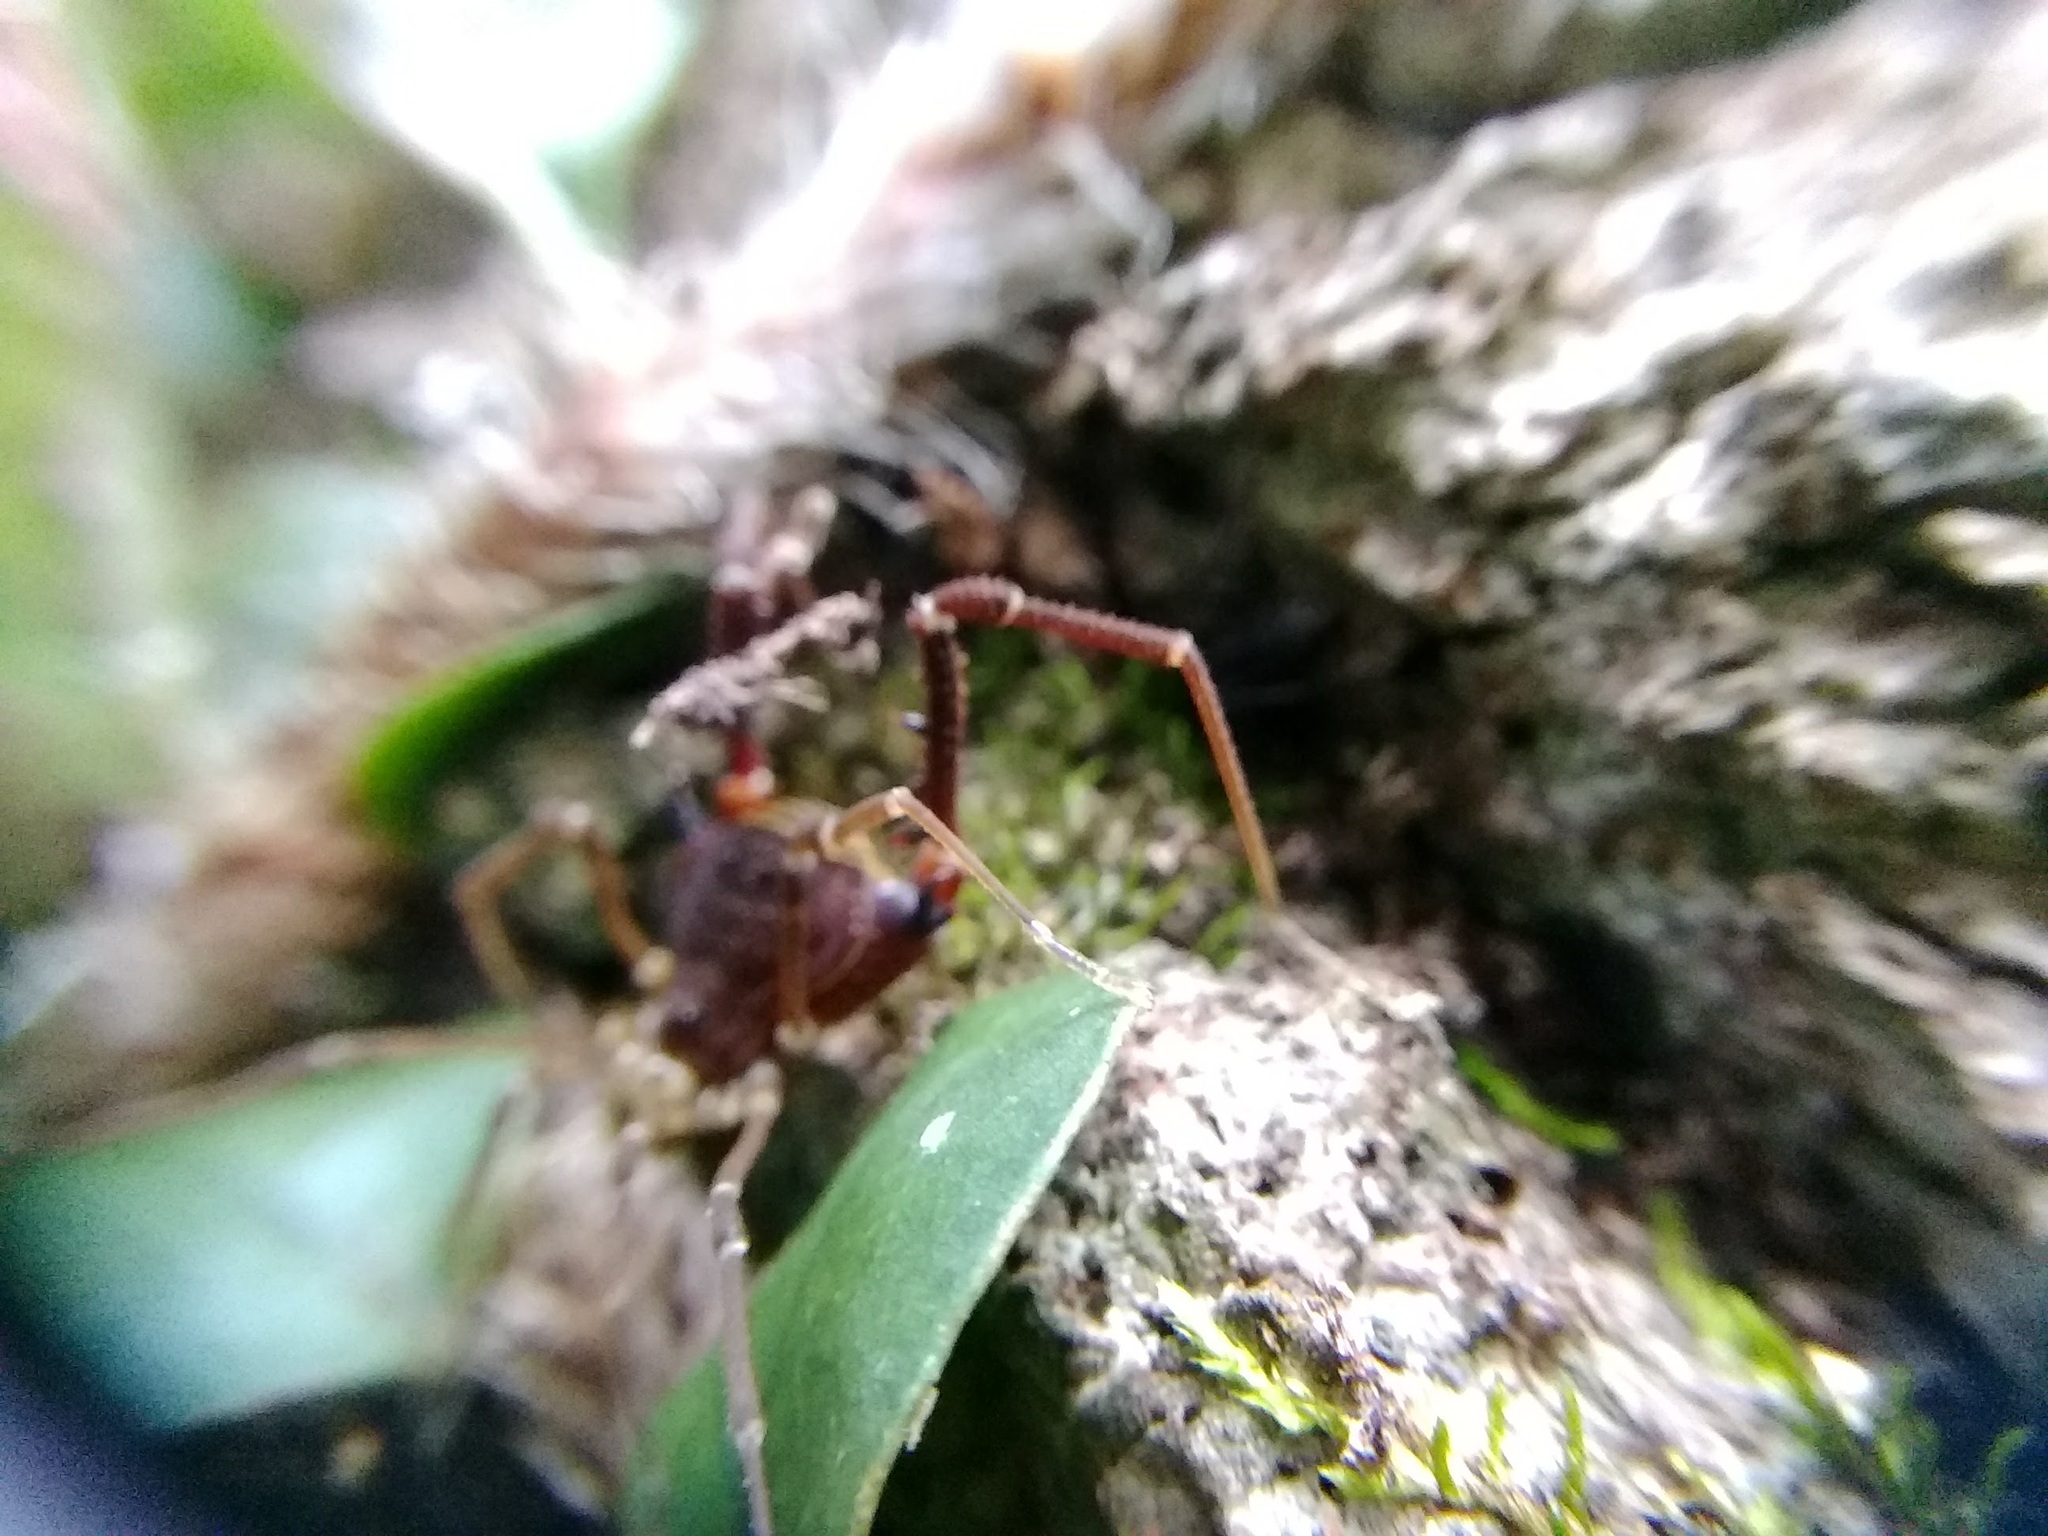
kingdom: Animalia
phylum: Arthropoda
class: Arachnida
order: Opiliones
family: Gonyleptidae
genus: Opisthoplatus
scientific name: Opisthoplatus prospicuus
